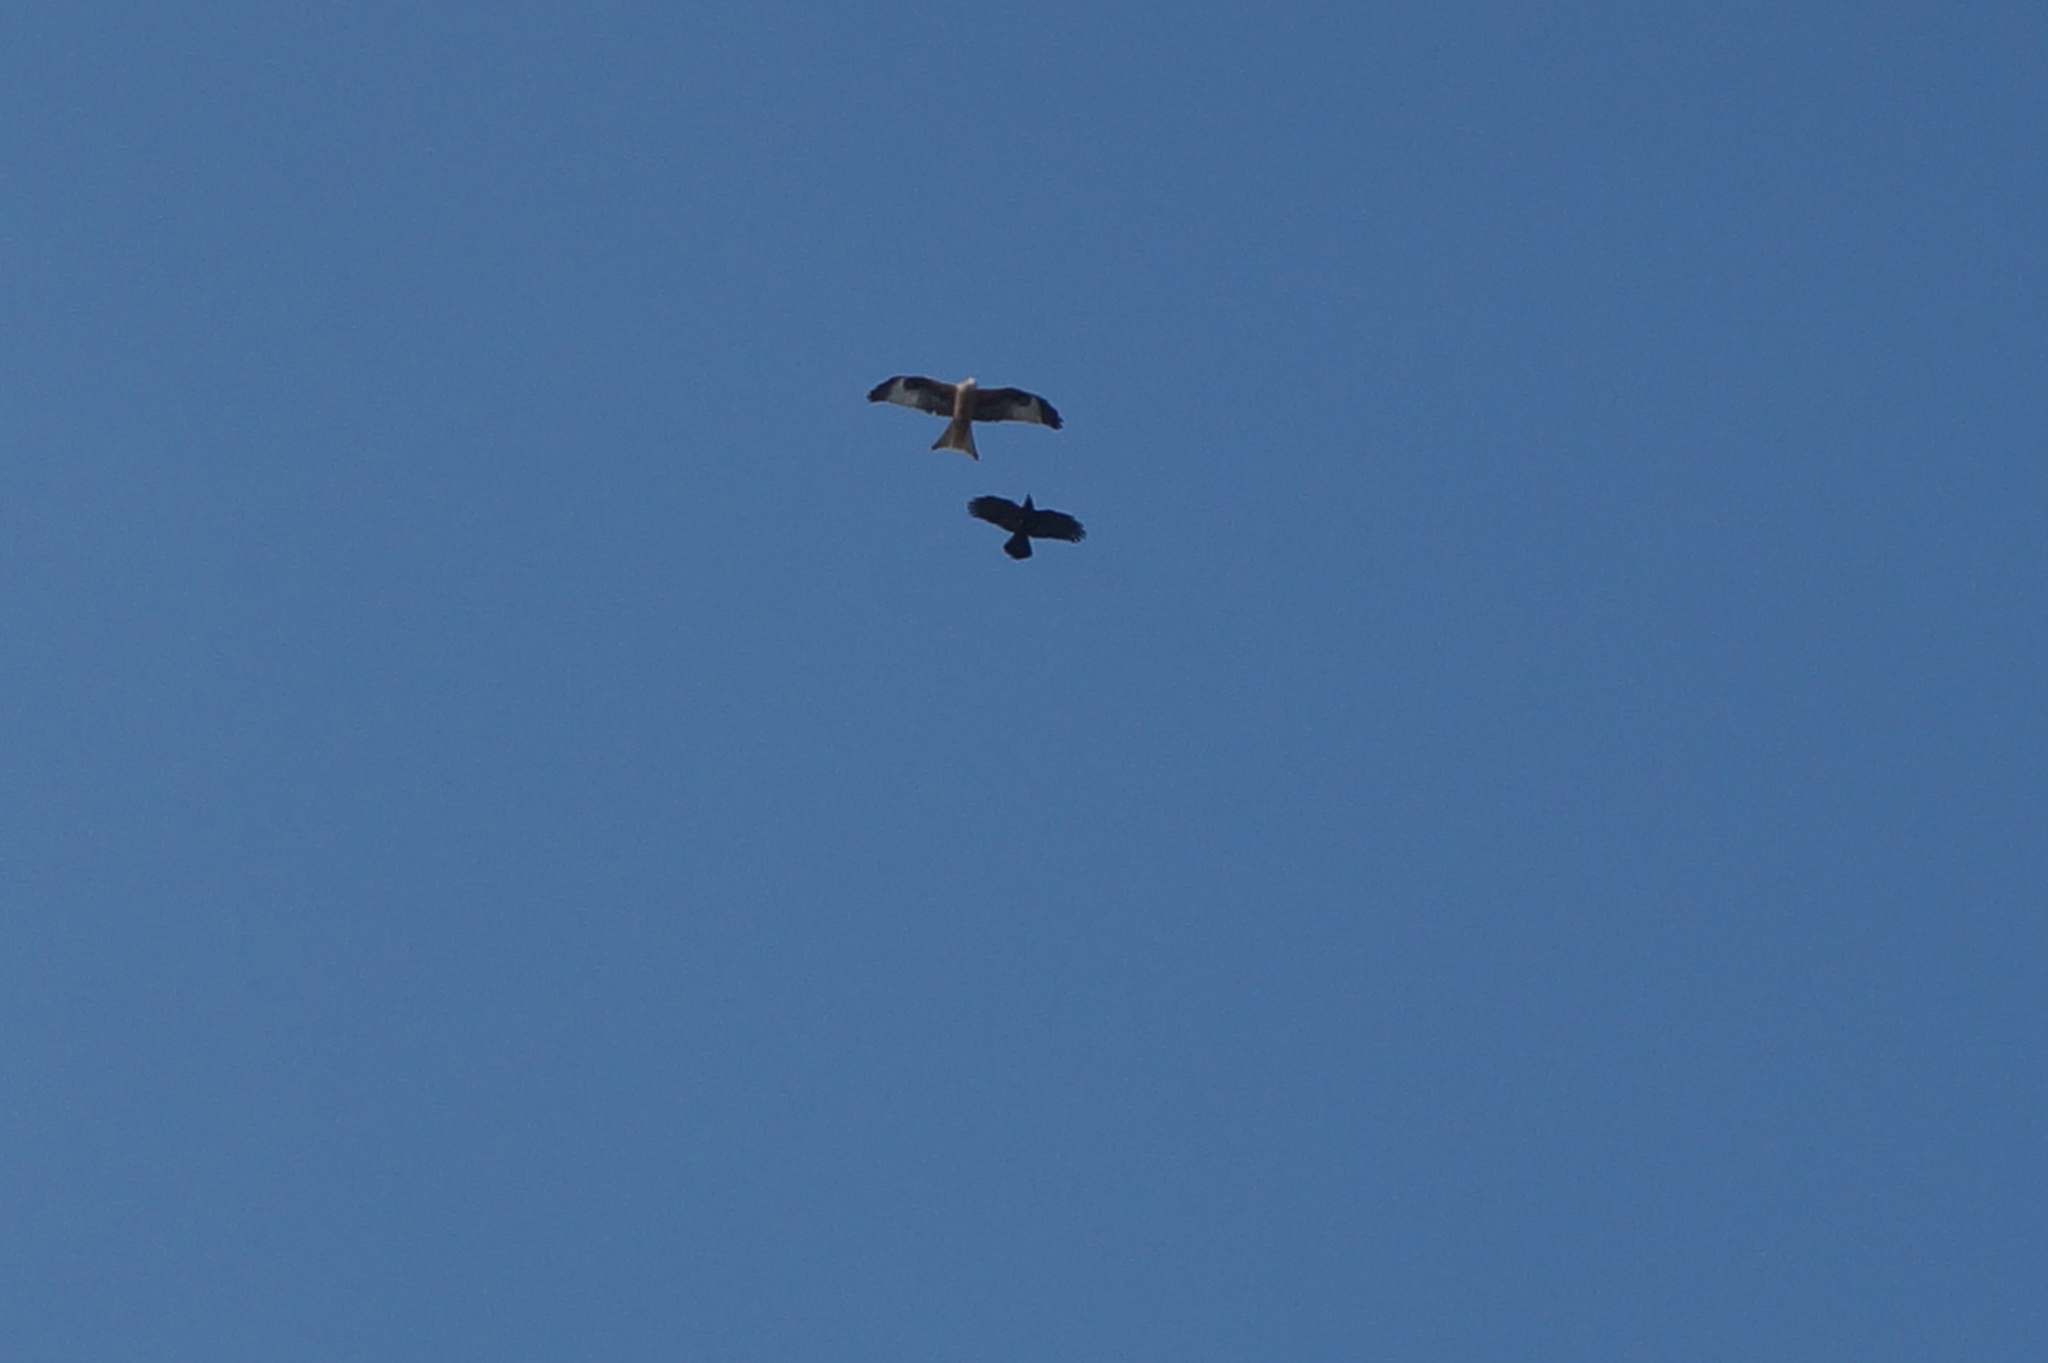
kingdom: Animalia
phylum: Chordata
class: Aves
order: Accipitriformes
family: Accipitridae
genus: Milvus
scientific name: Milvus milvus
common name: Red kite
